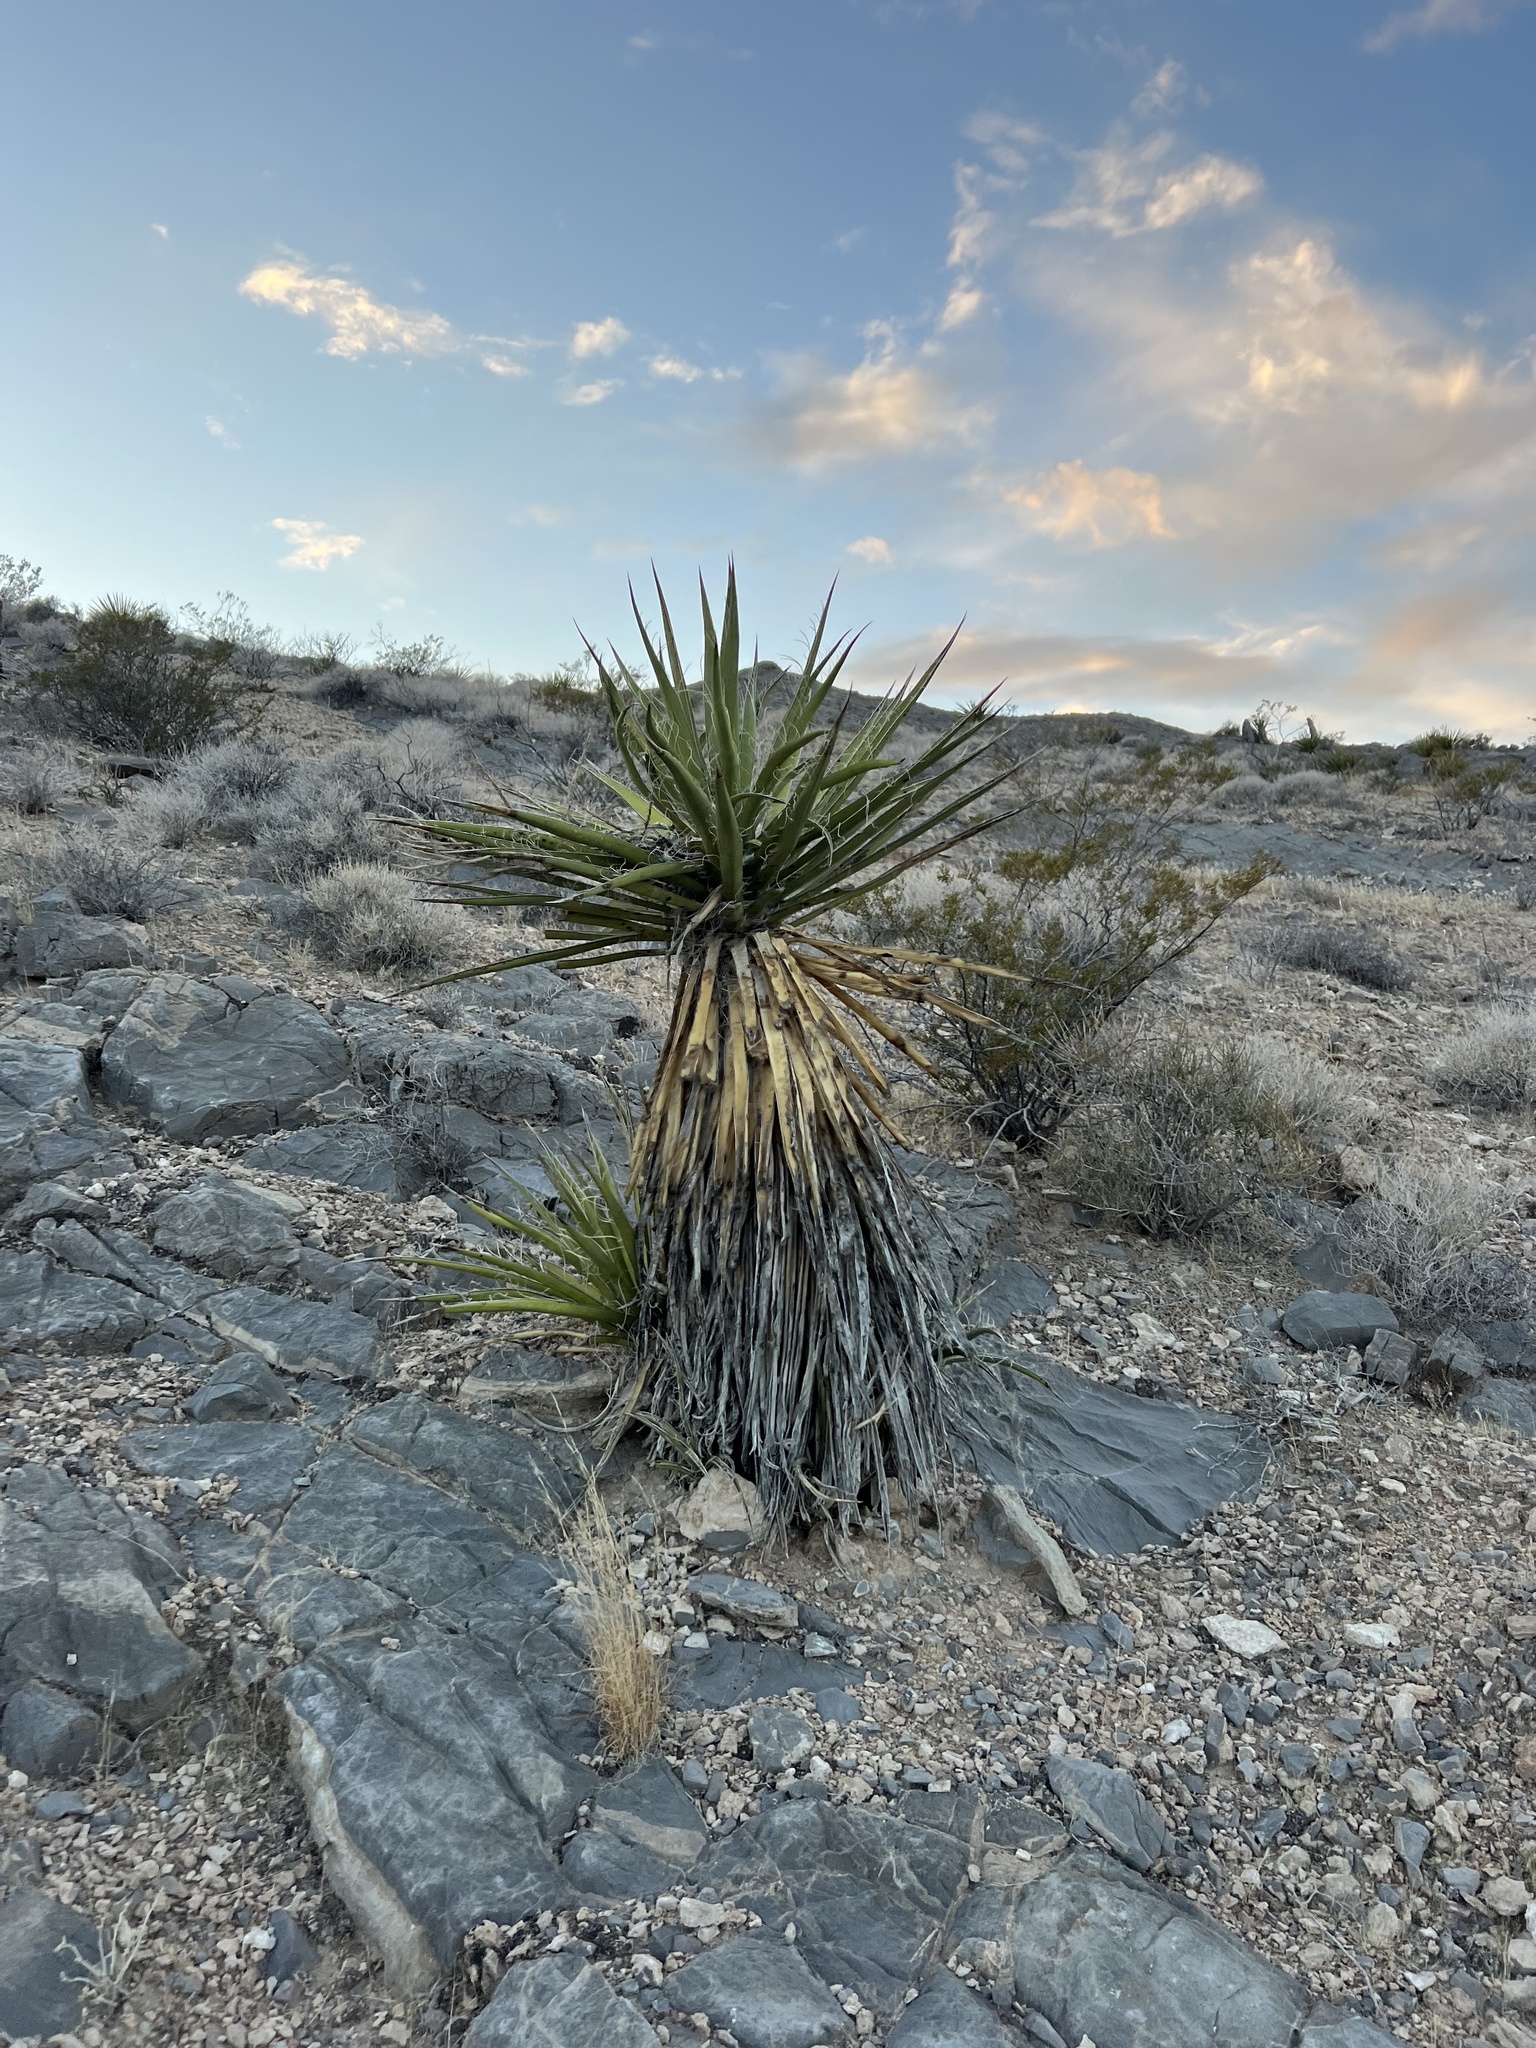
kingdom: Plantae
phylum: Tracheophyta
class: Liliopsida
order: Asparagales
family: Asparagaceae
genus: Yucca
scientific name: Yucca schidigera
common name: Mojave yucca
